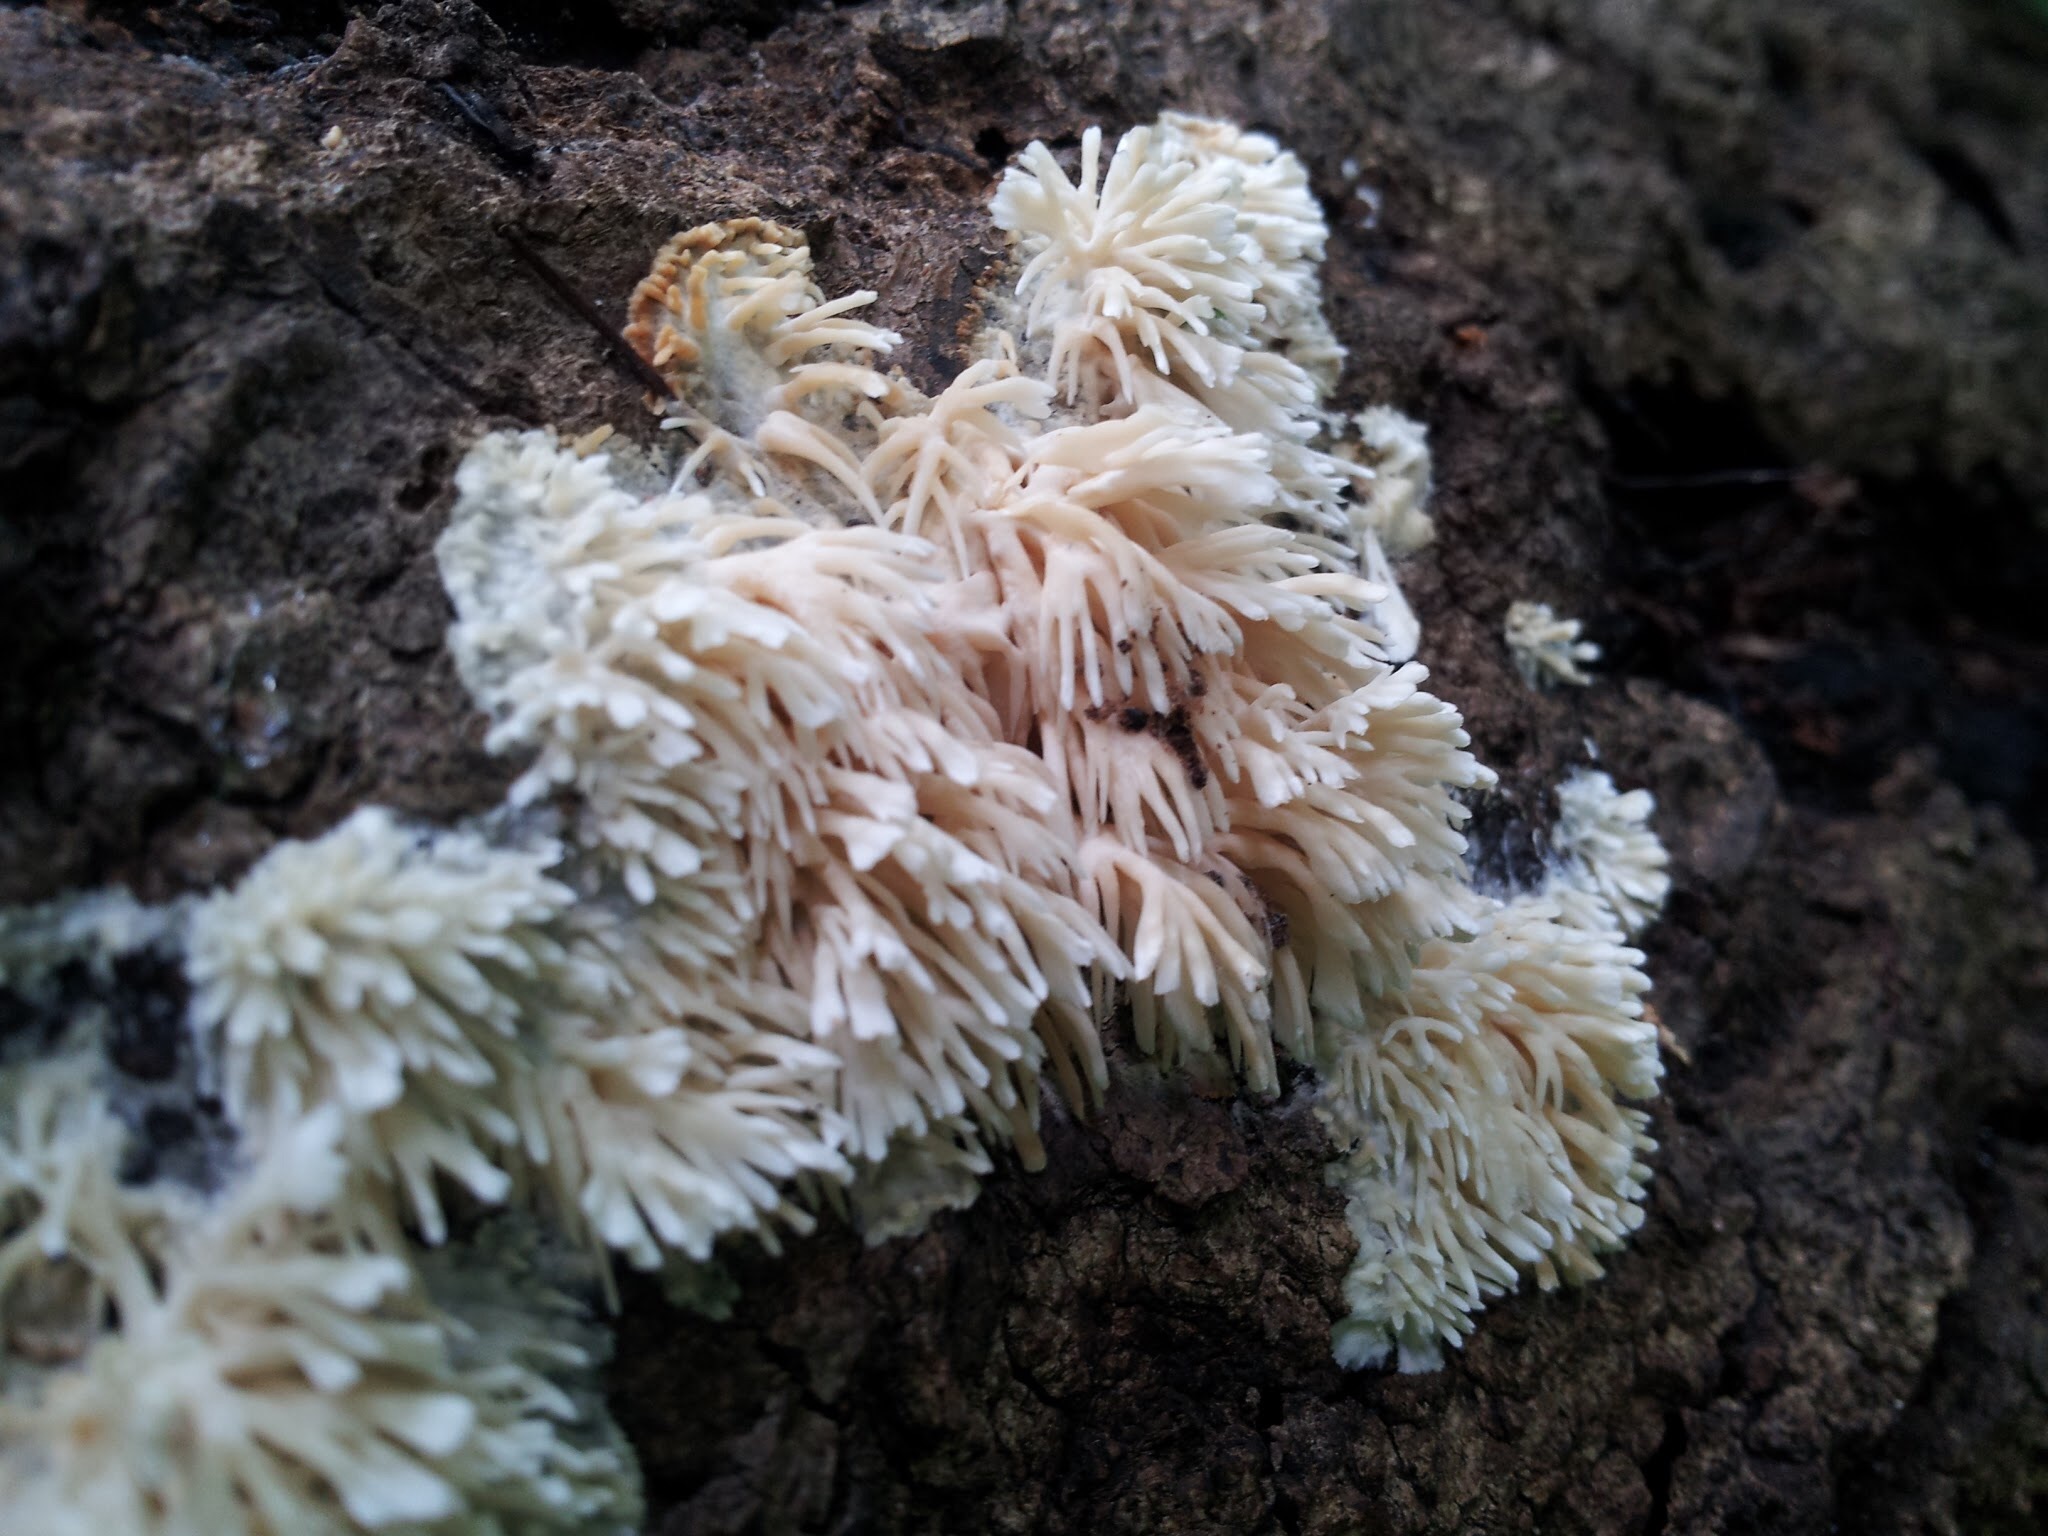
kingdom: Fungi
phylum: Basidiomycota
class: Agaricomycetes
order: Agaricales
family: Radulomycetaceae
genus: Radulomyces
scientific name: Radulomyces copelandii
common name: Asian beauty
